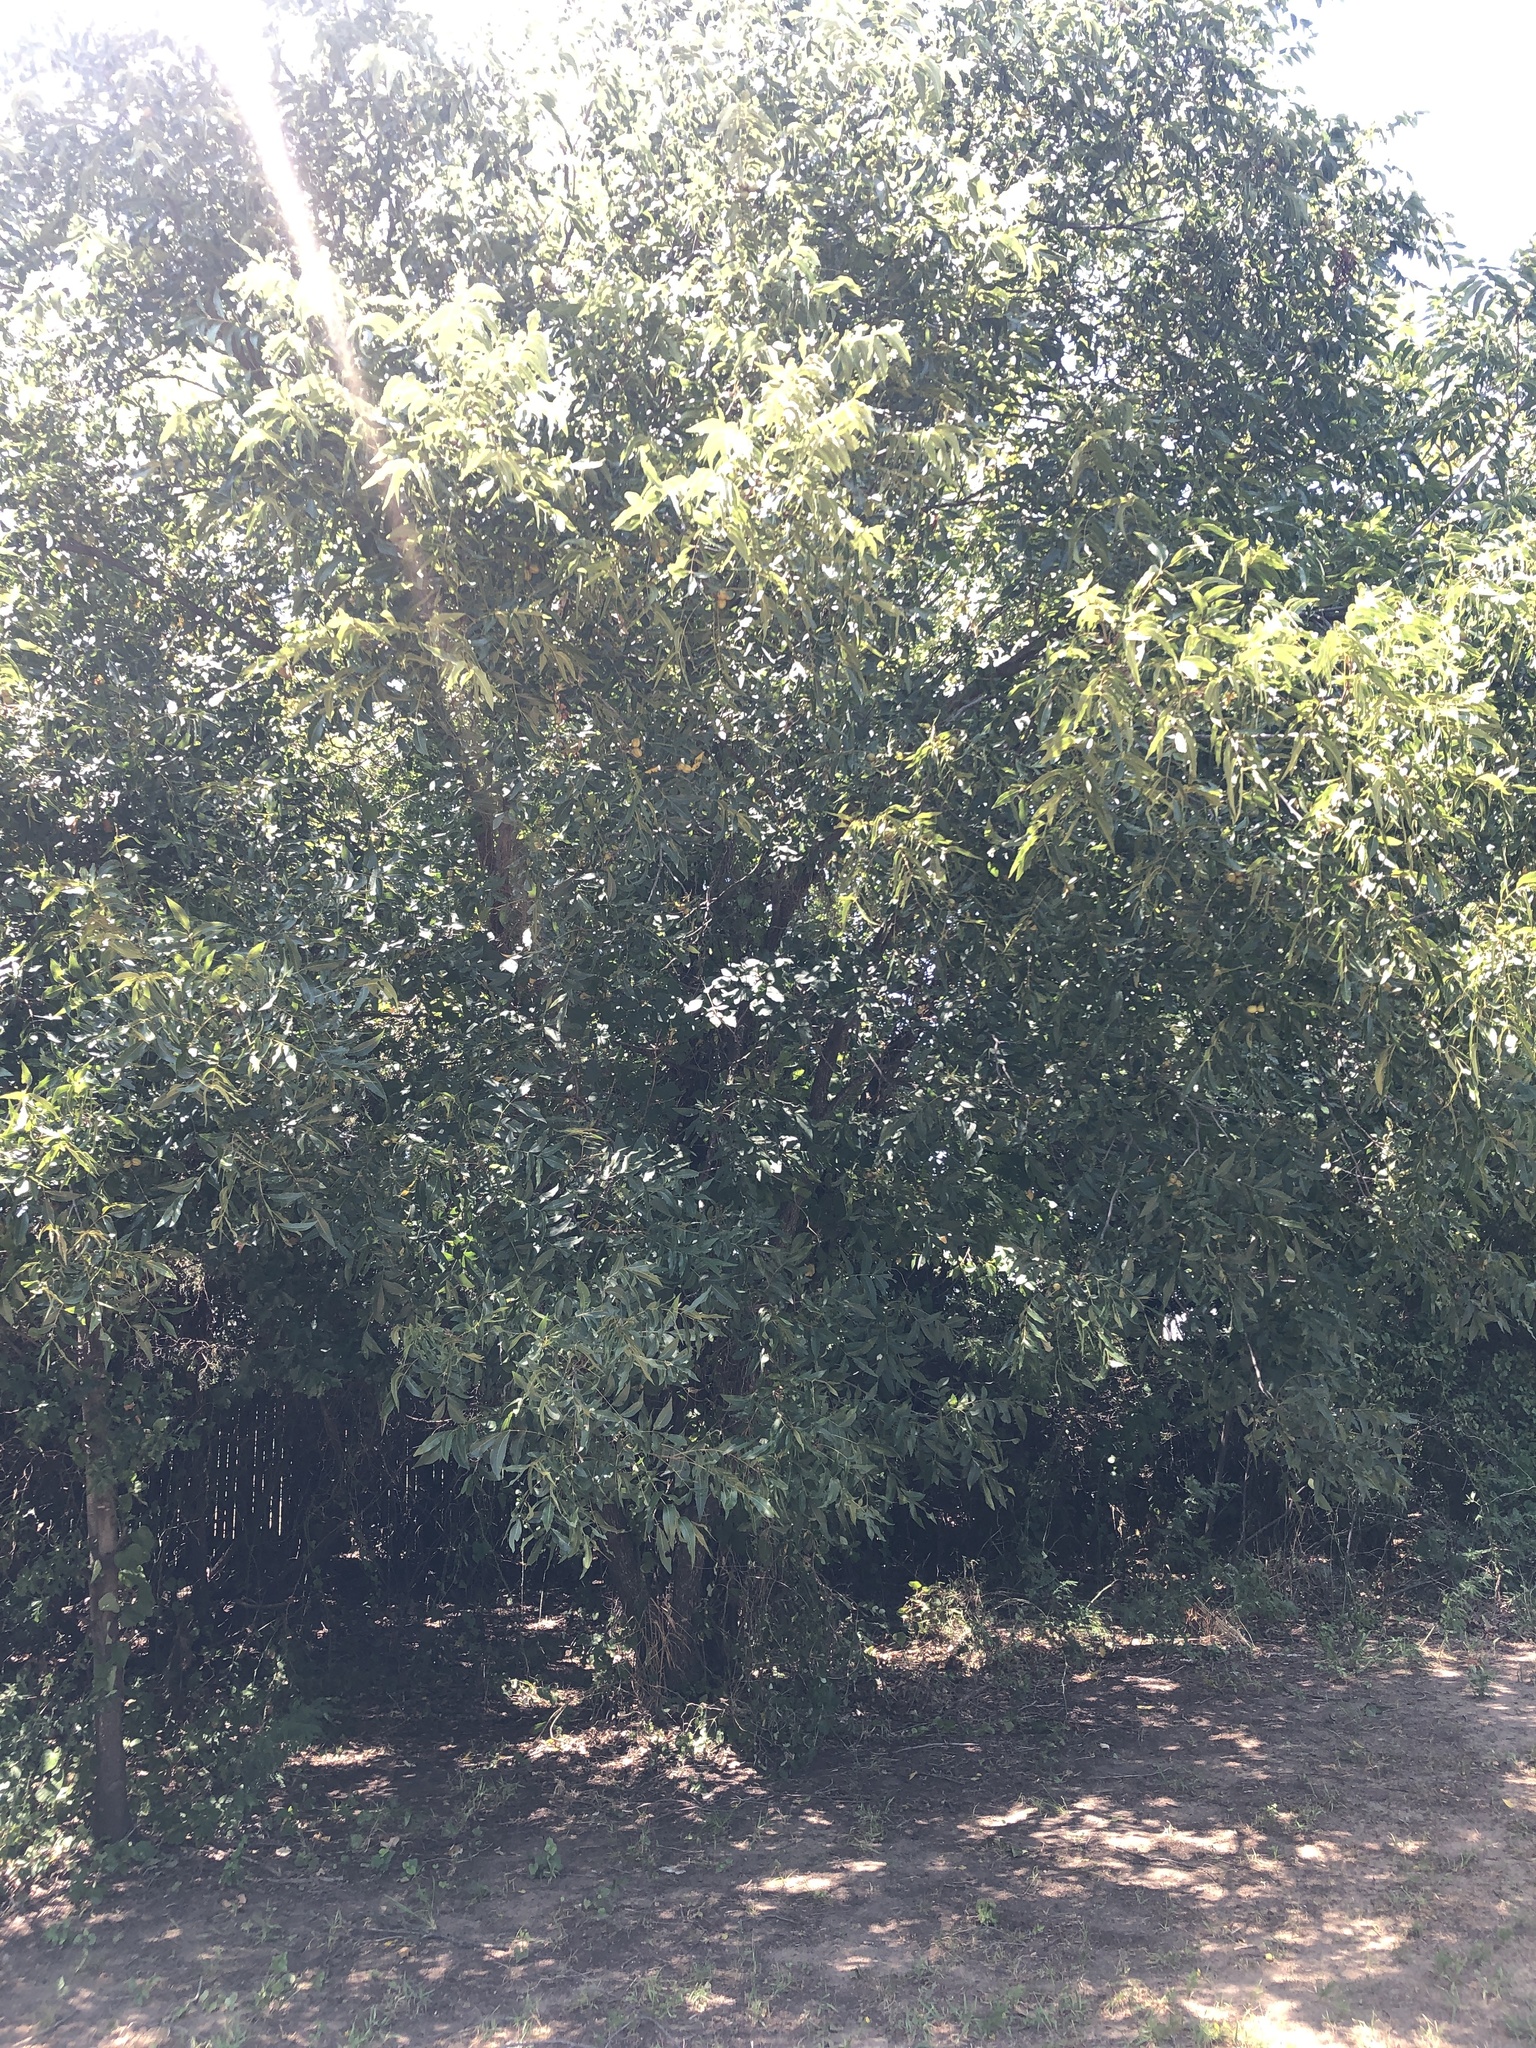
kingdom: Plantae
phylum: Tracheophyta
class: Magnoliopsida
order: Fagales
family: Juglandaceae
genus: Carya
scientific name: Carya illinoinensis
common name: Pecan
